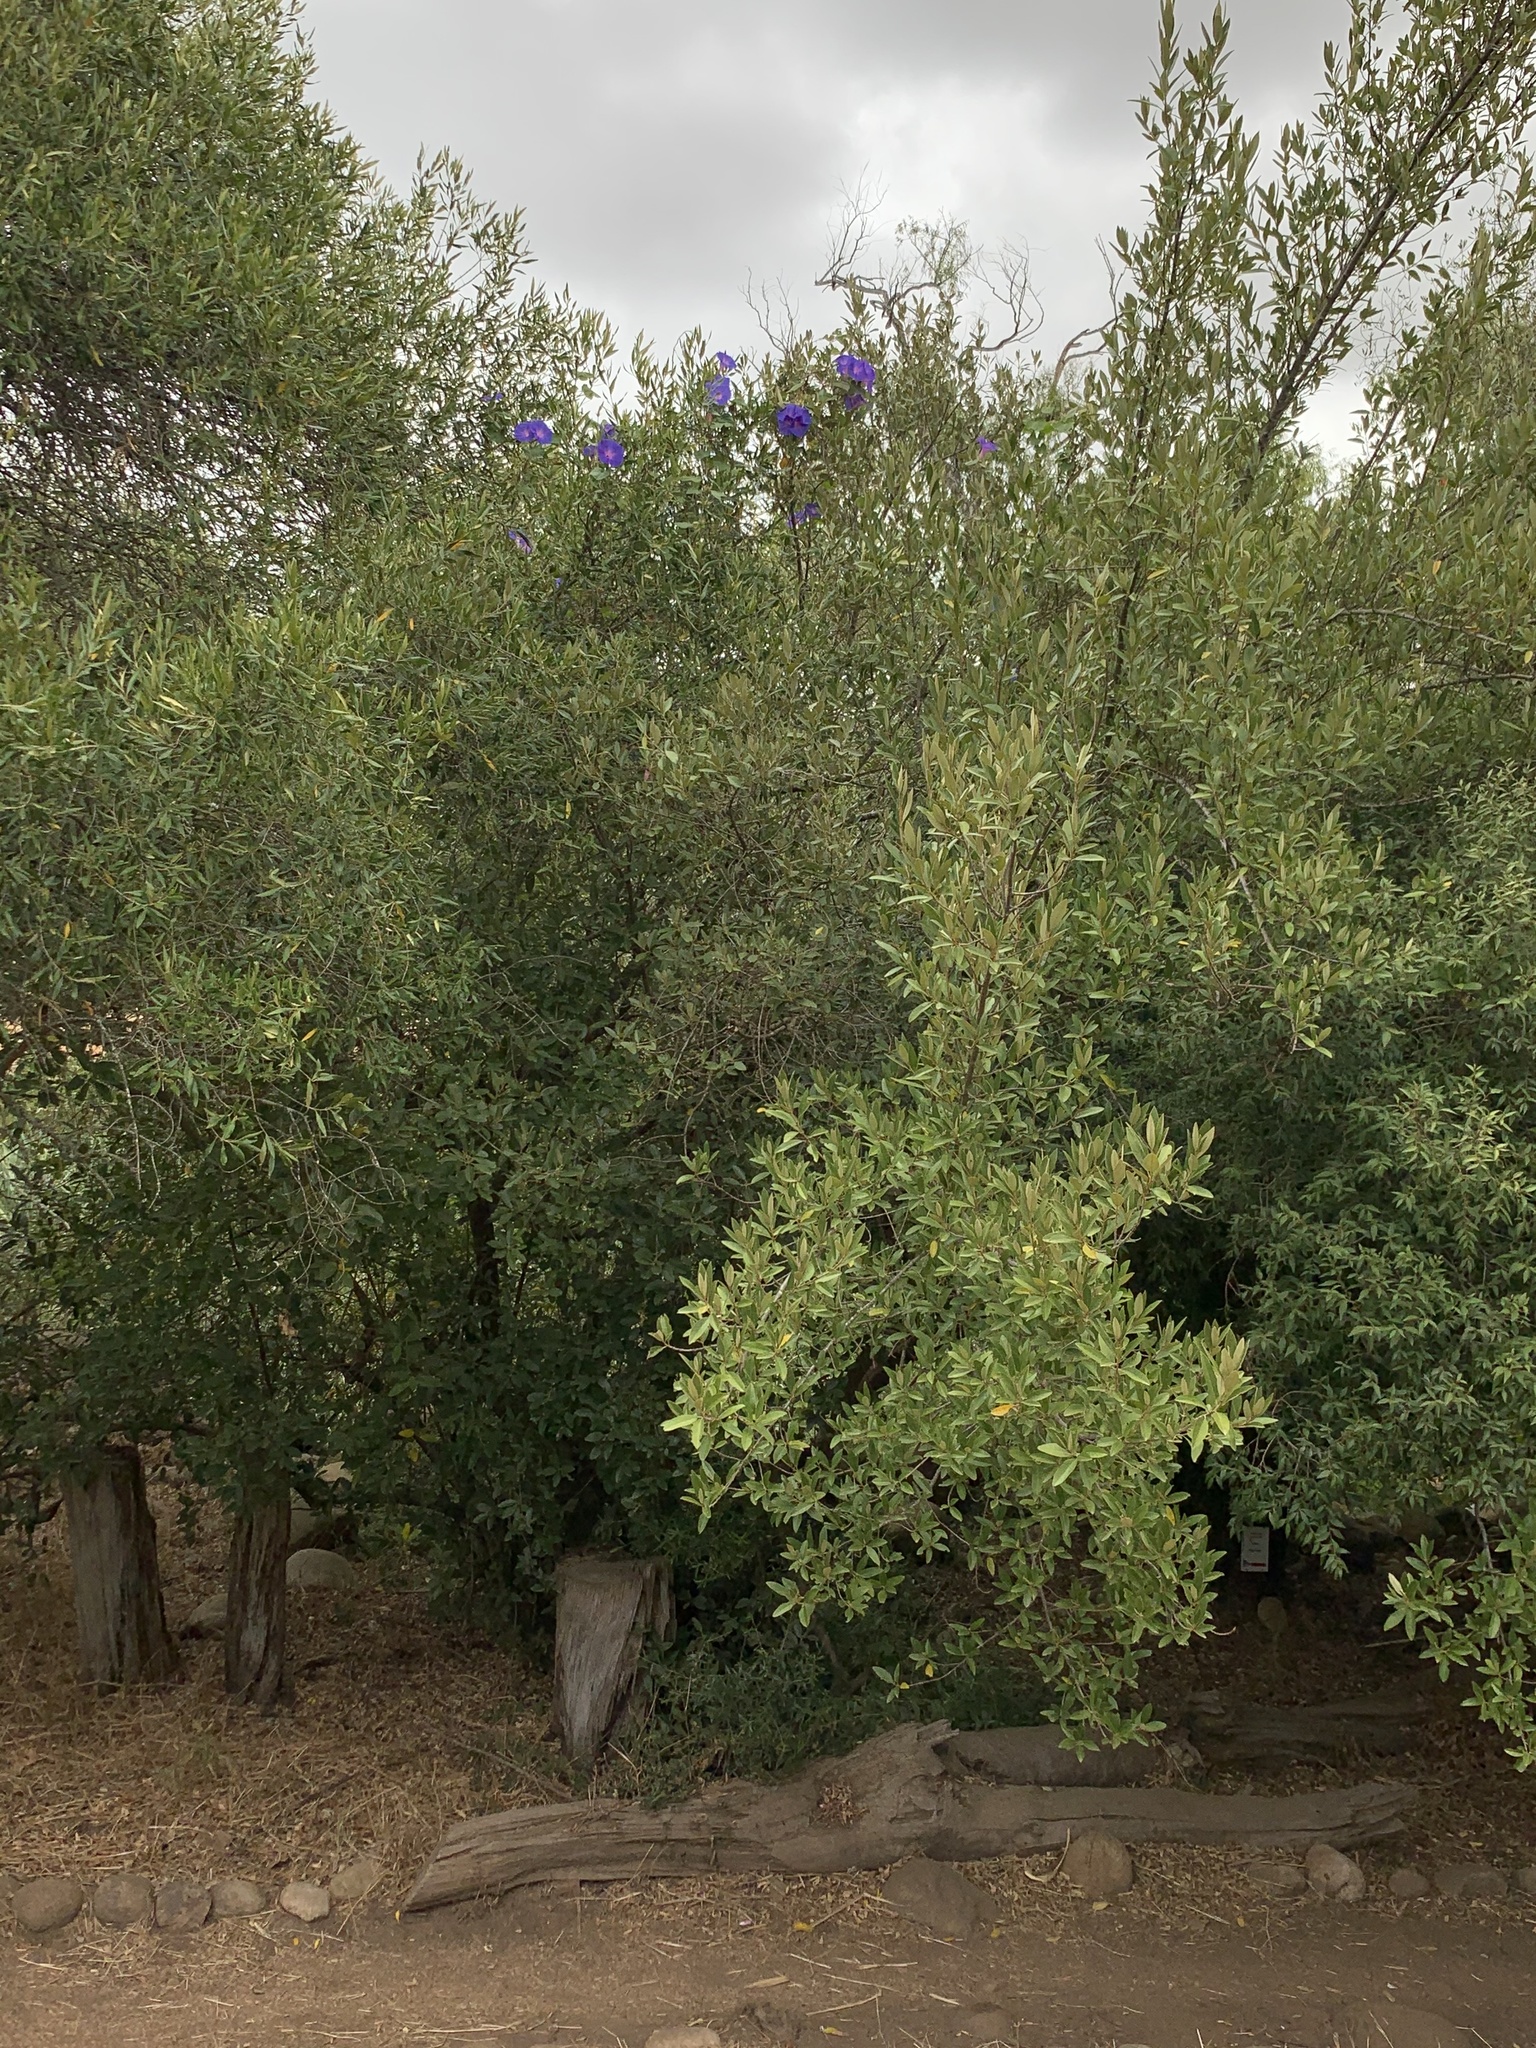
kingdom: Plantae
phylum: Tracheophyta
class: Magnoliopsida
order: Solanales
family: Convolvulaceae
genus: Ipomoea
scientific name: Ipomoea indica
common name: Blue dawnflower
